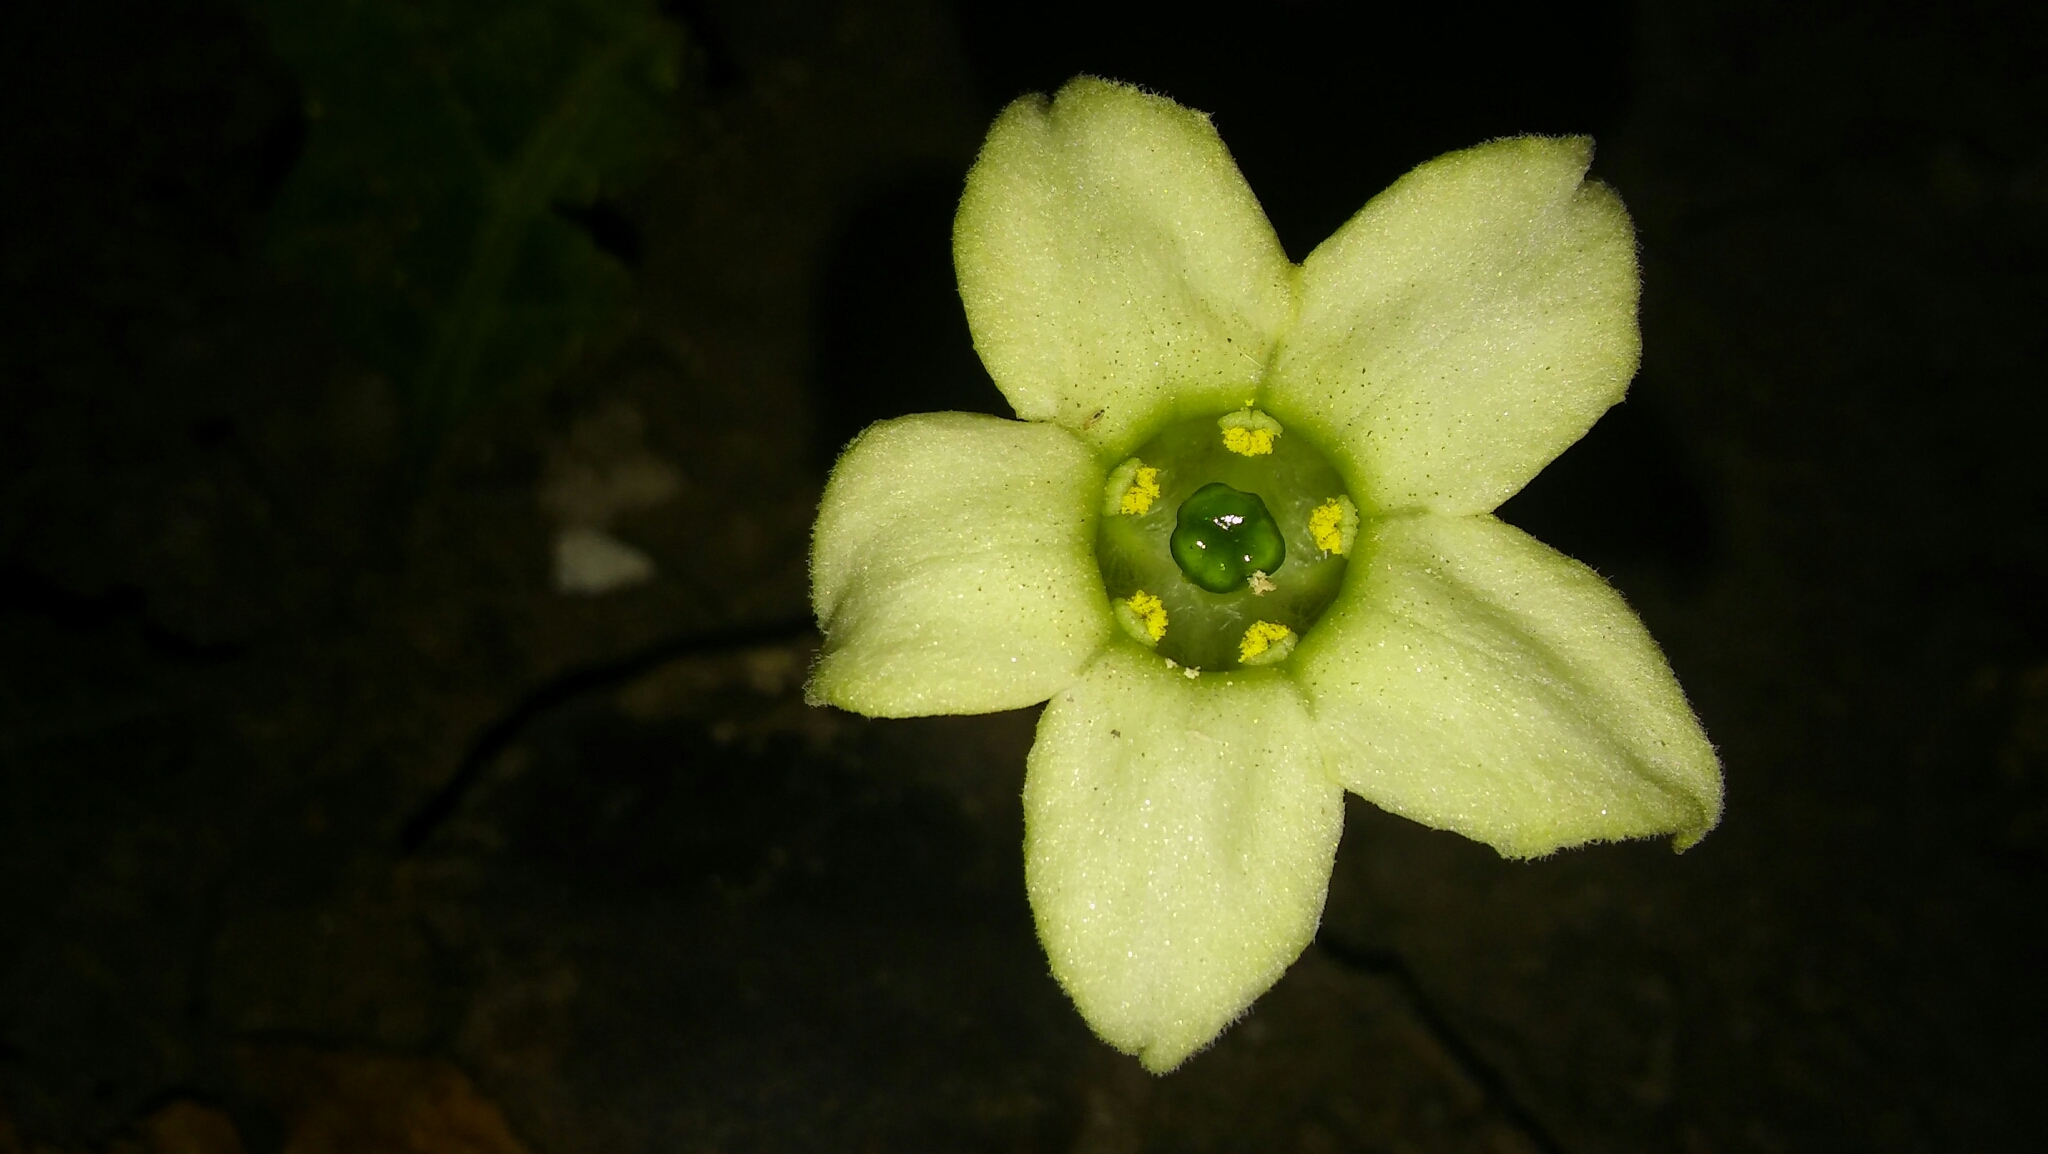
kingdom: Plantae
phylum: Tracheophyta
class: Magnoliopsida
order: Solanales
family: Solanaceae
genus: Jaborosa
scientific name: Jaborosa runcinata
